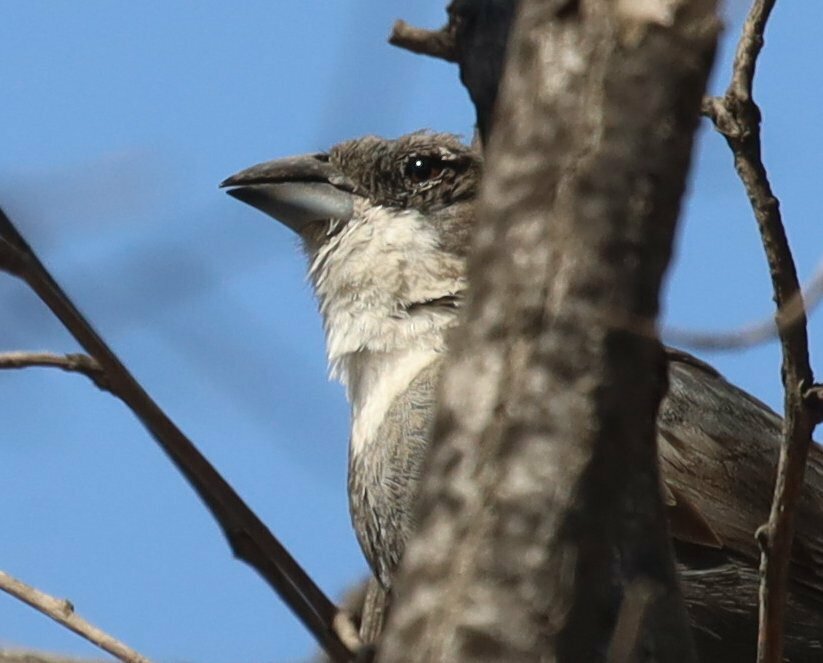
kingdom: Animalia
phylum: Chordata
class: Aves
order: Passeriformes
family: Thraupidae
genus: Diuca
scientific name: Diuca diuca
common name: Common diuca finch
